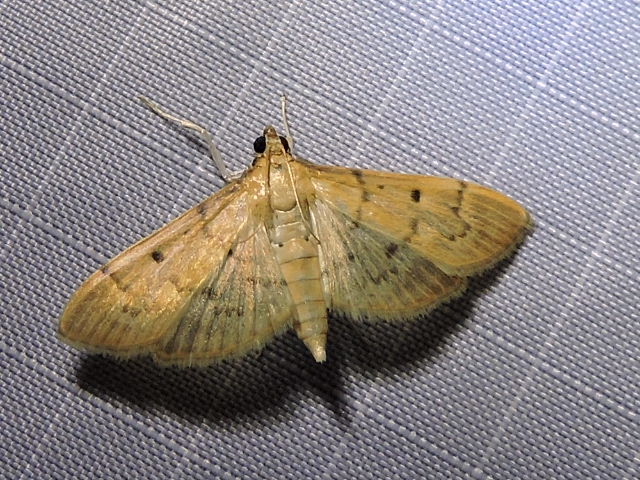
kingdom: Animalia
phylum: Arthropoda
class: Insecta
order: Lepidoptera
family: Crambidae
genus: Herpetogramma
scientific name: Herpetogramma bipunctalis
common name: Southern beet webworm
